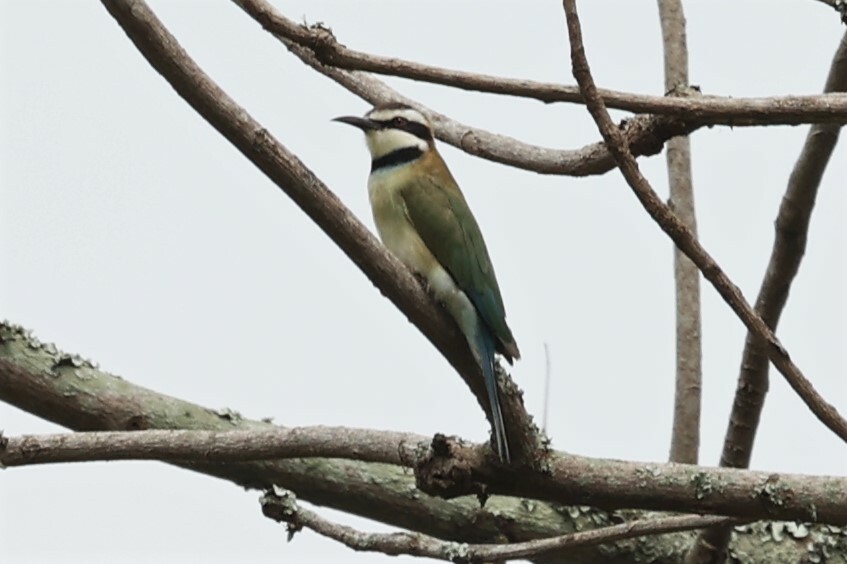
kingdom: Animalia
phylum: Chordata
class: Aves
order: Coraciiformes
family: Meropidae
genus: Merops
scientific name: Merops albicollis
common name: White-throated bee-eater
